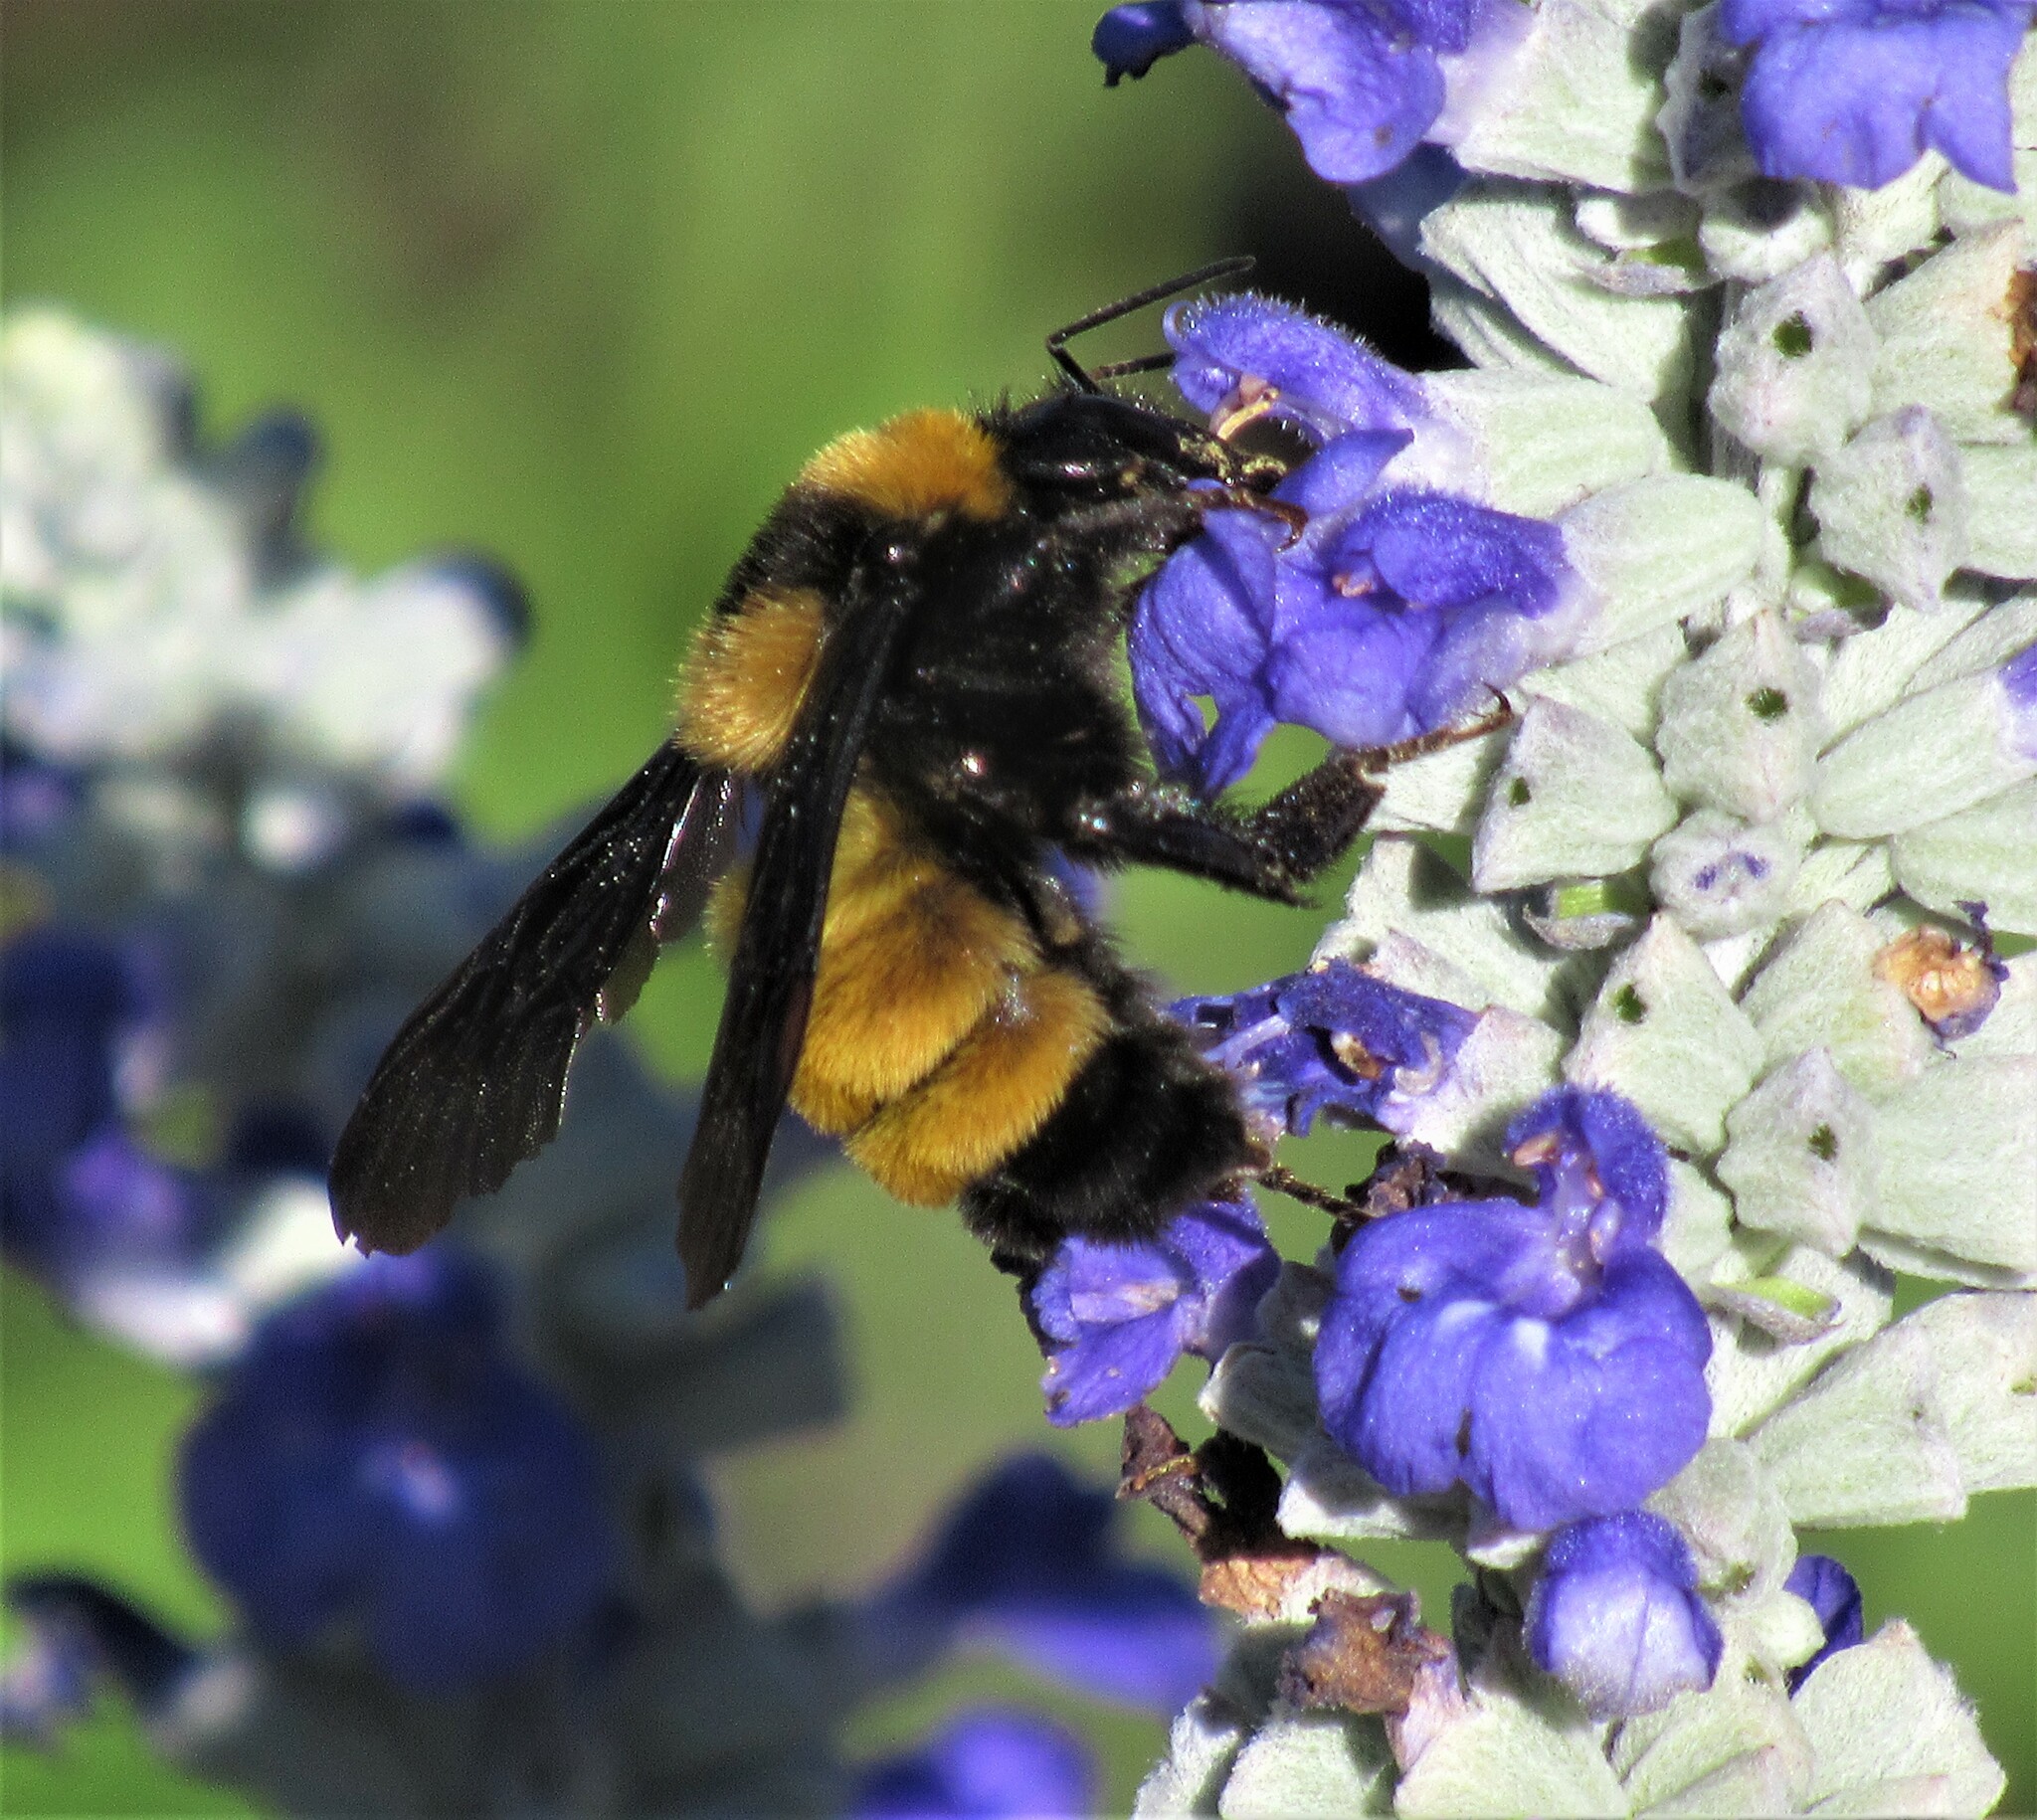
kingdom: Animalia
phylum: Arthropoda
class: Insecta
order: Hymenoptera
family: Apidae
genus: Bombus
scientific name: Bombus sonorus
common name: Sonoran bumble bee
